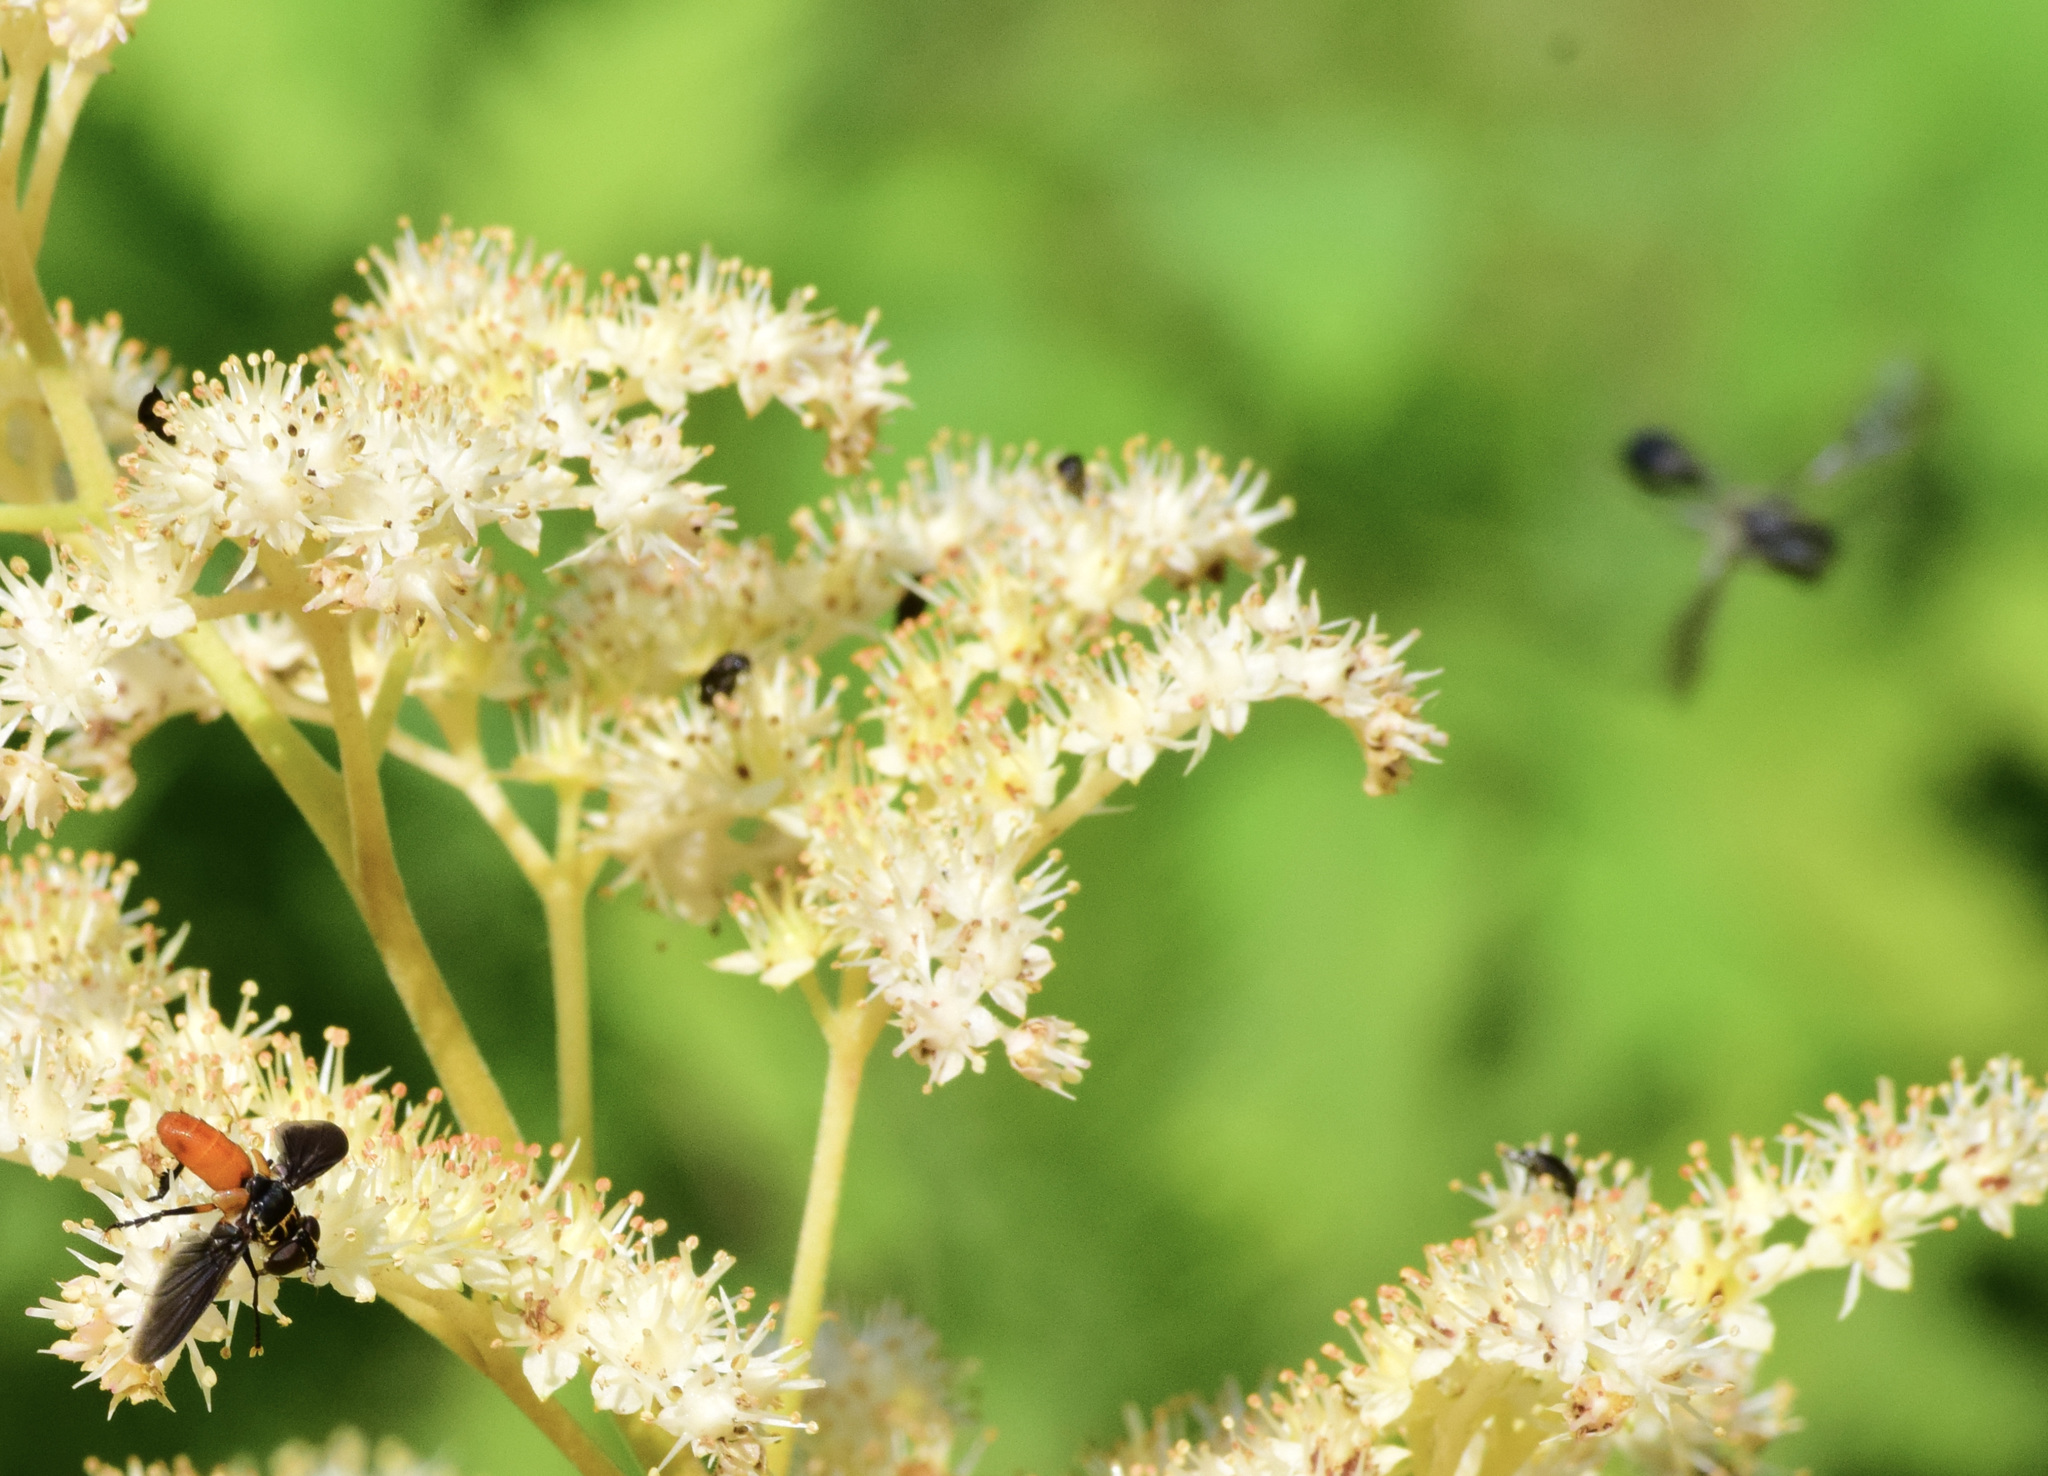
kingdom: Animalia
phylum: Arthropoda
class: Insecta
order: Diptera
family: Tachinidae
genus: Trichopoda
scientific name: Trichopoda pennipes
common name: Tachinid fly
